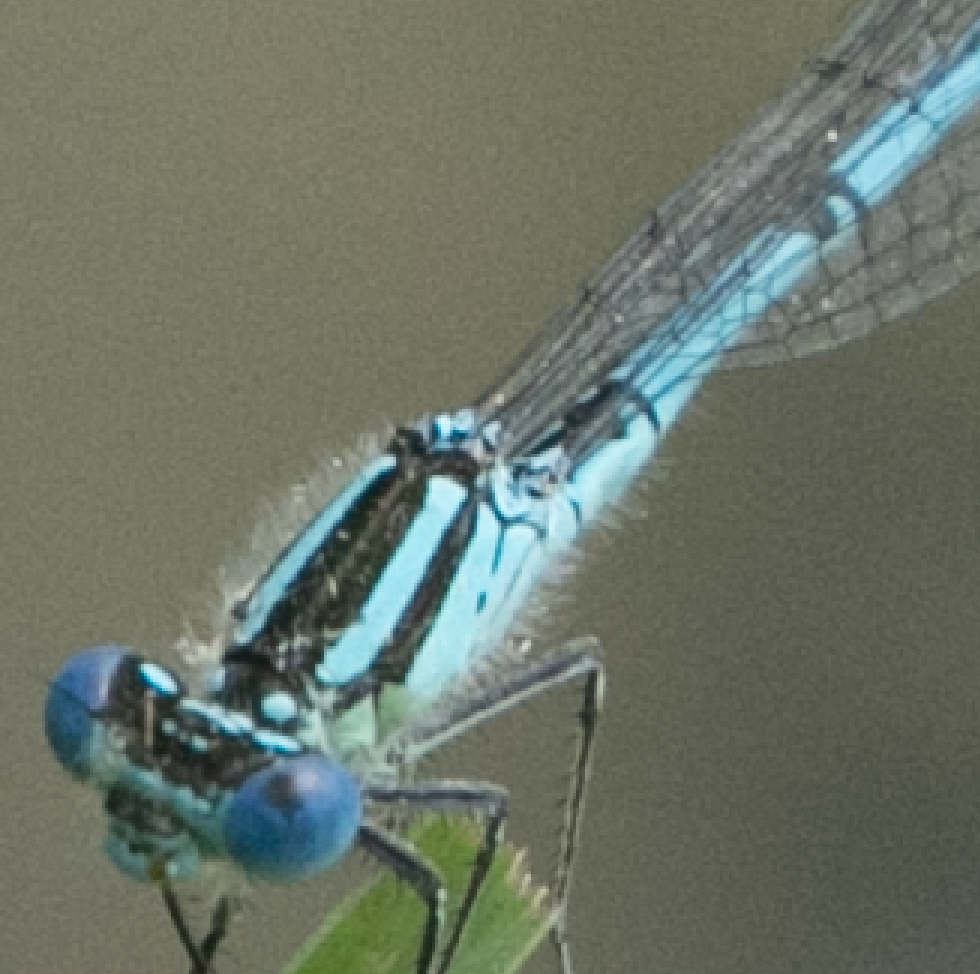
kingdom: Animalia
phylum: Arthropoda
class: Insecta
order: Odonata
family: Coenagrionidae
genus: Erythromma
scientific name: Erythromma lindenii
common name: Blue-eye
